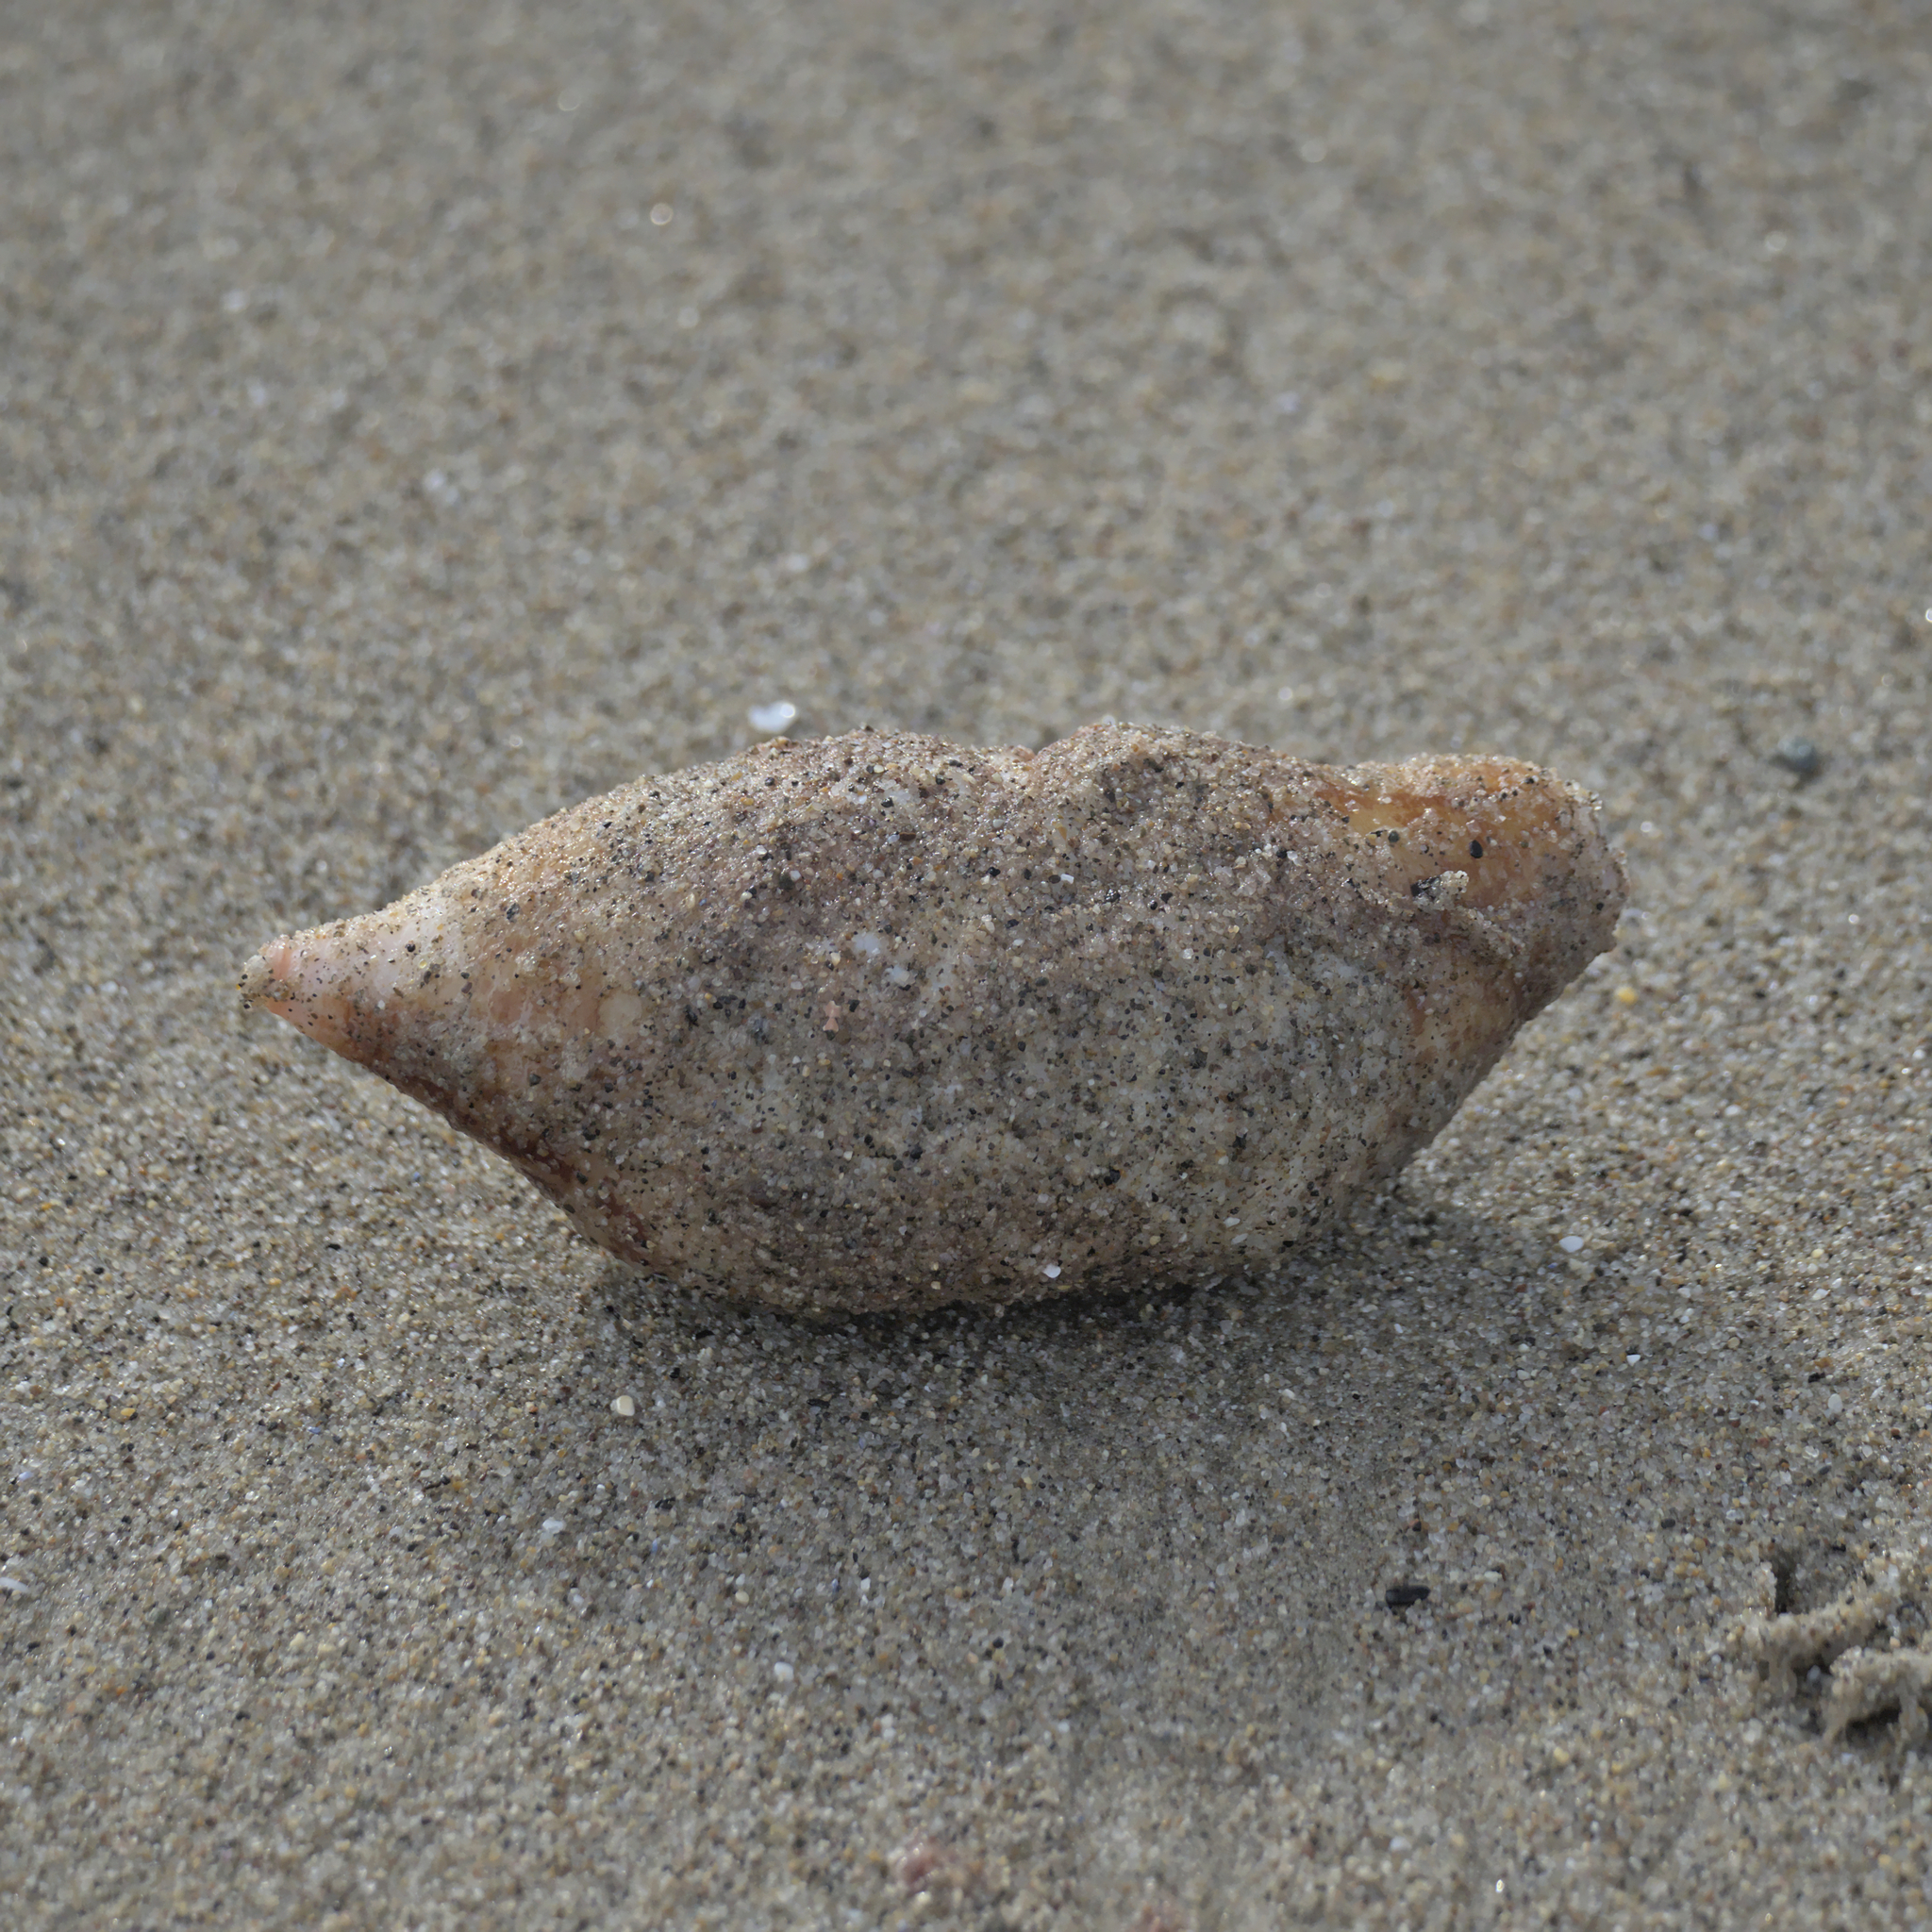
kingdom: Animalia
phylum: Echinodermata
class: Holothuroidea
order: Molpadida
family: Caudinidae
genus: Caudina
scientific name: Caudina arenicola
